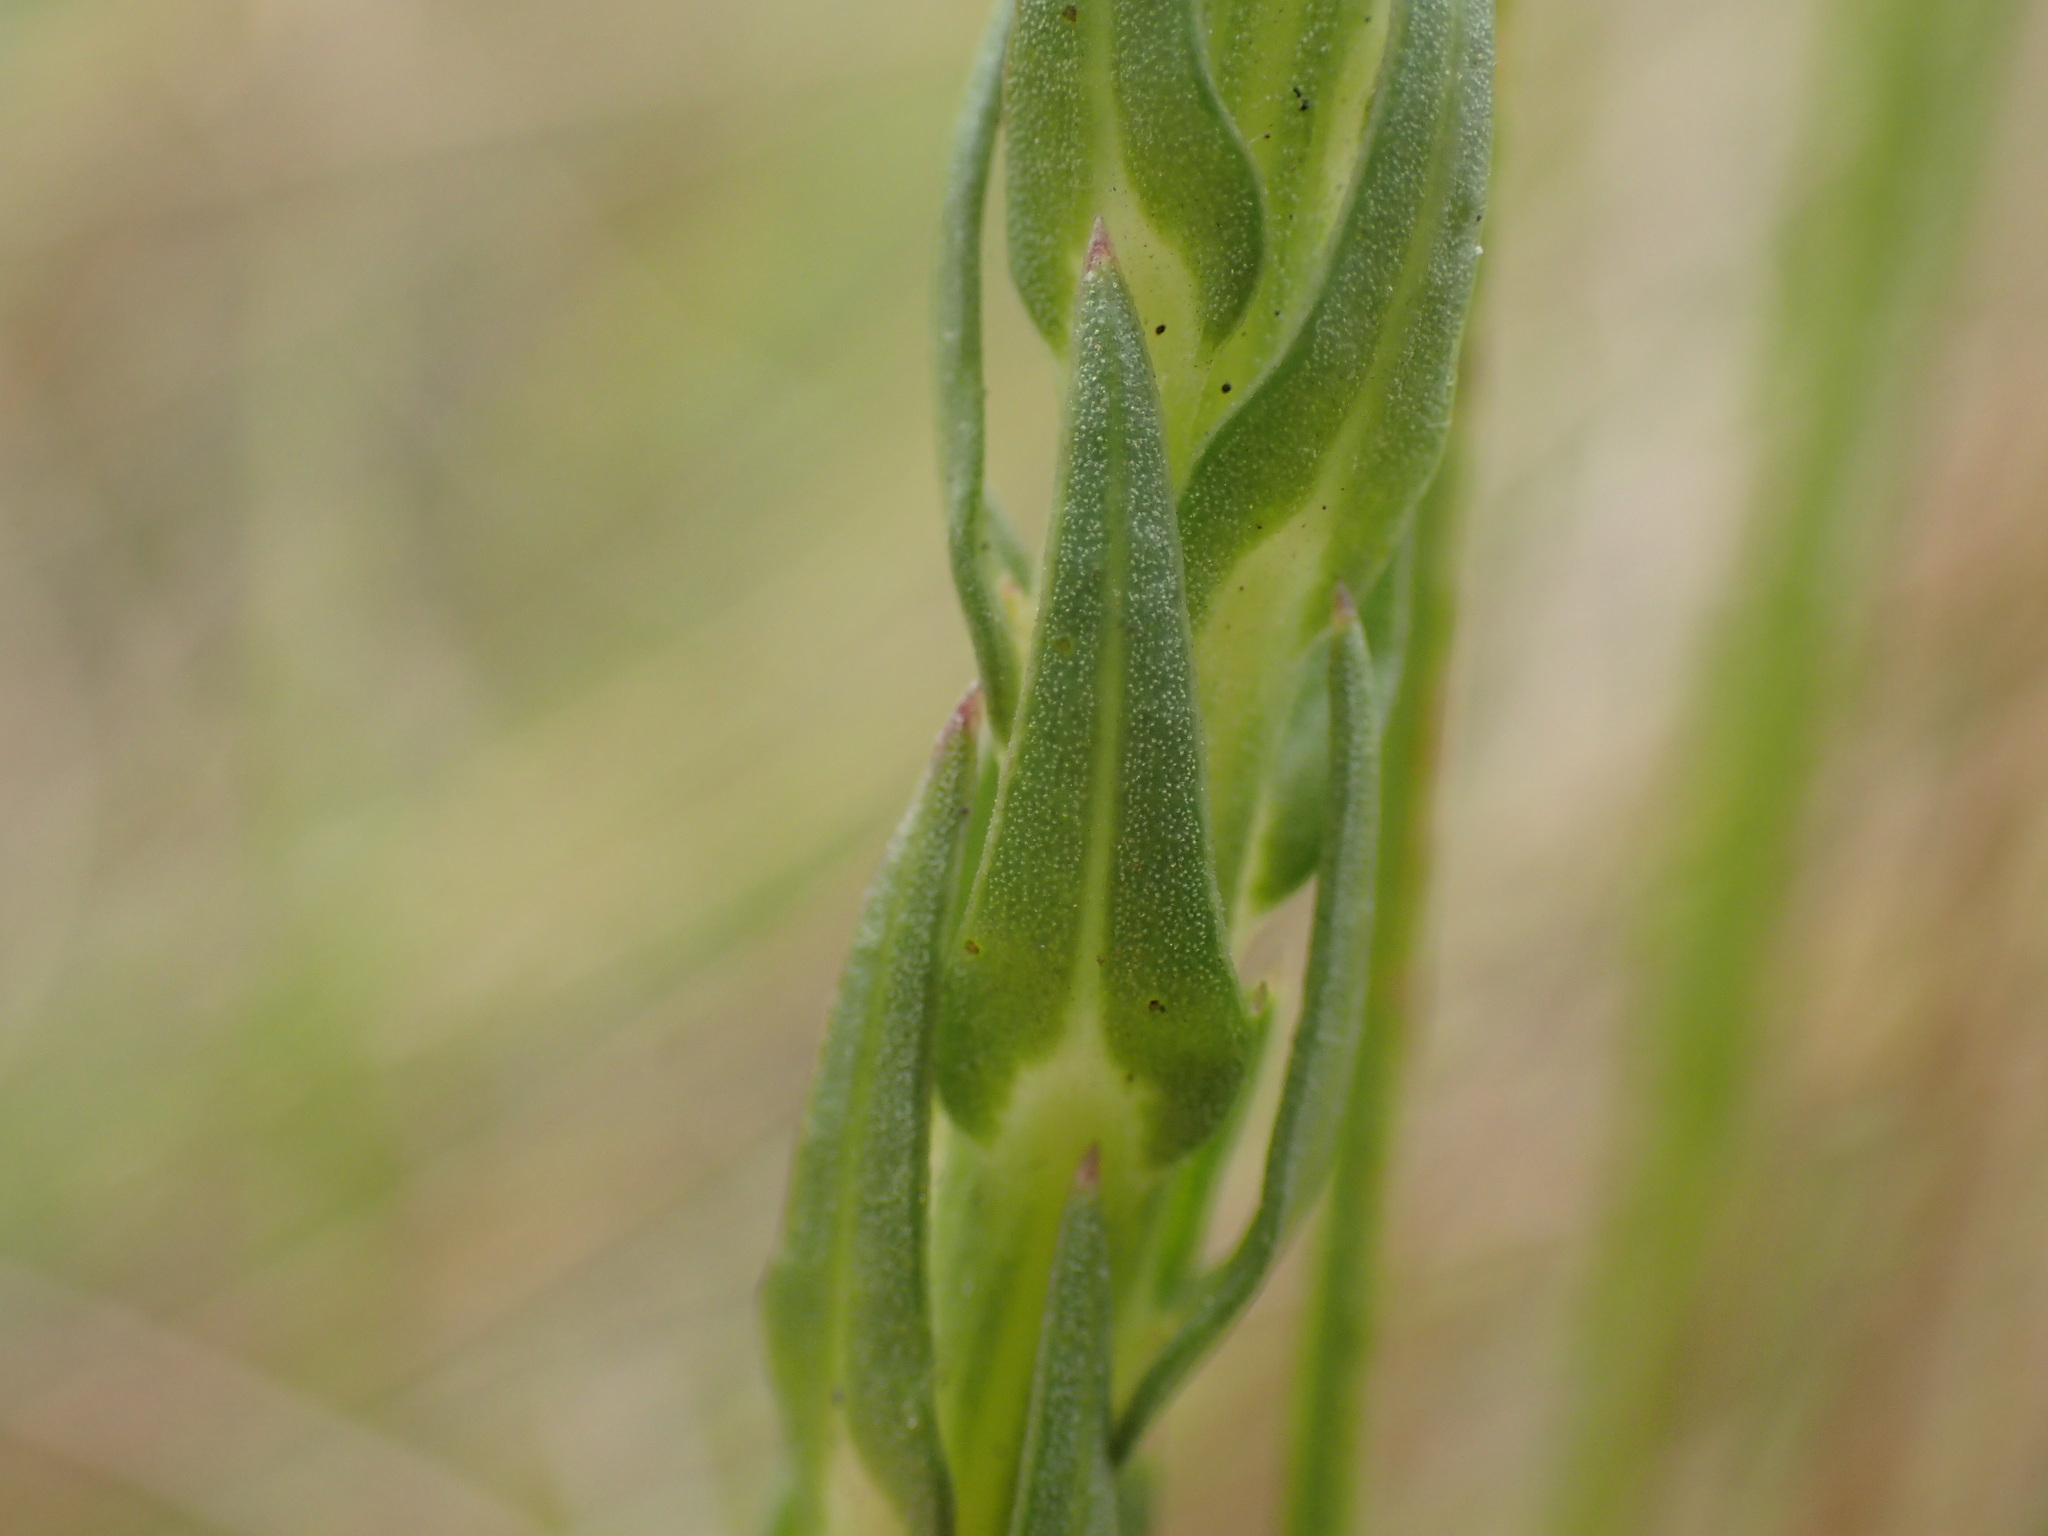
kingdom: Plantae
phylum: Tracheophyta
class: Magnoliopsida
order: Asterales
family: Campanulaceae
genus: Wahlenbergia
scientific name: Wahlenbergia huttonii
